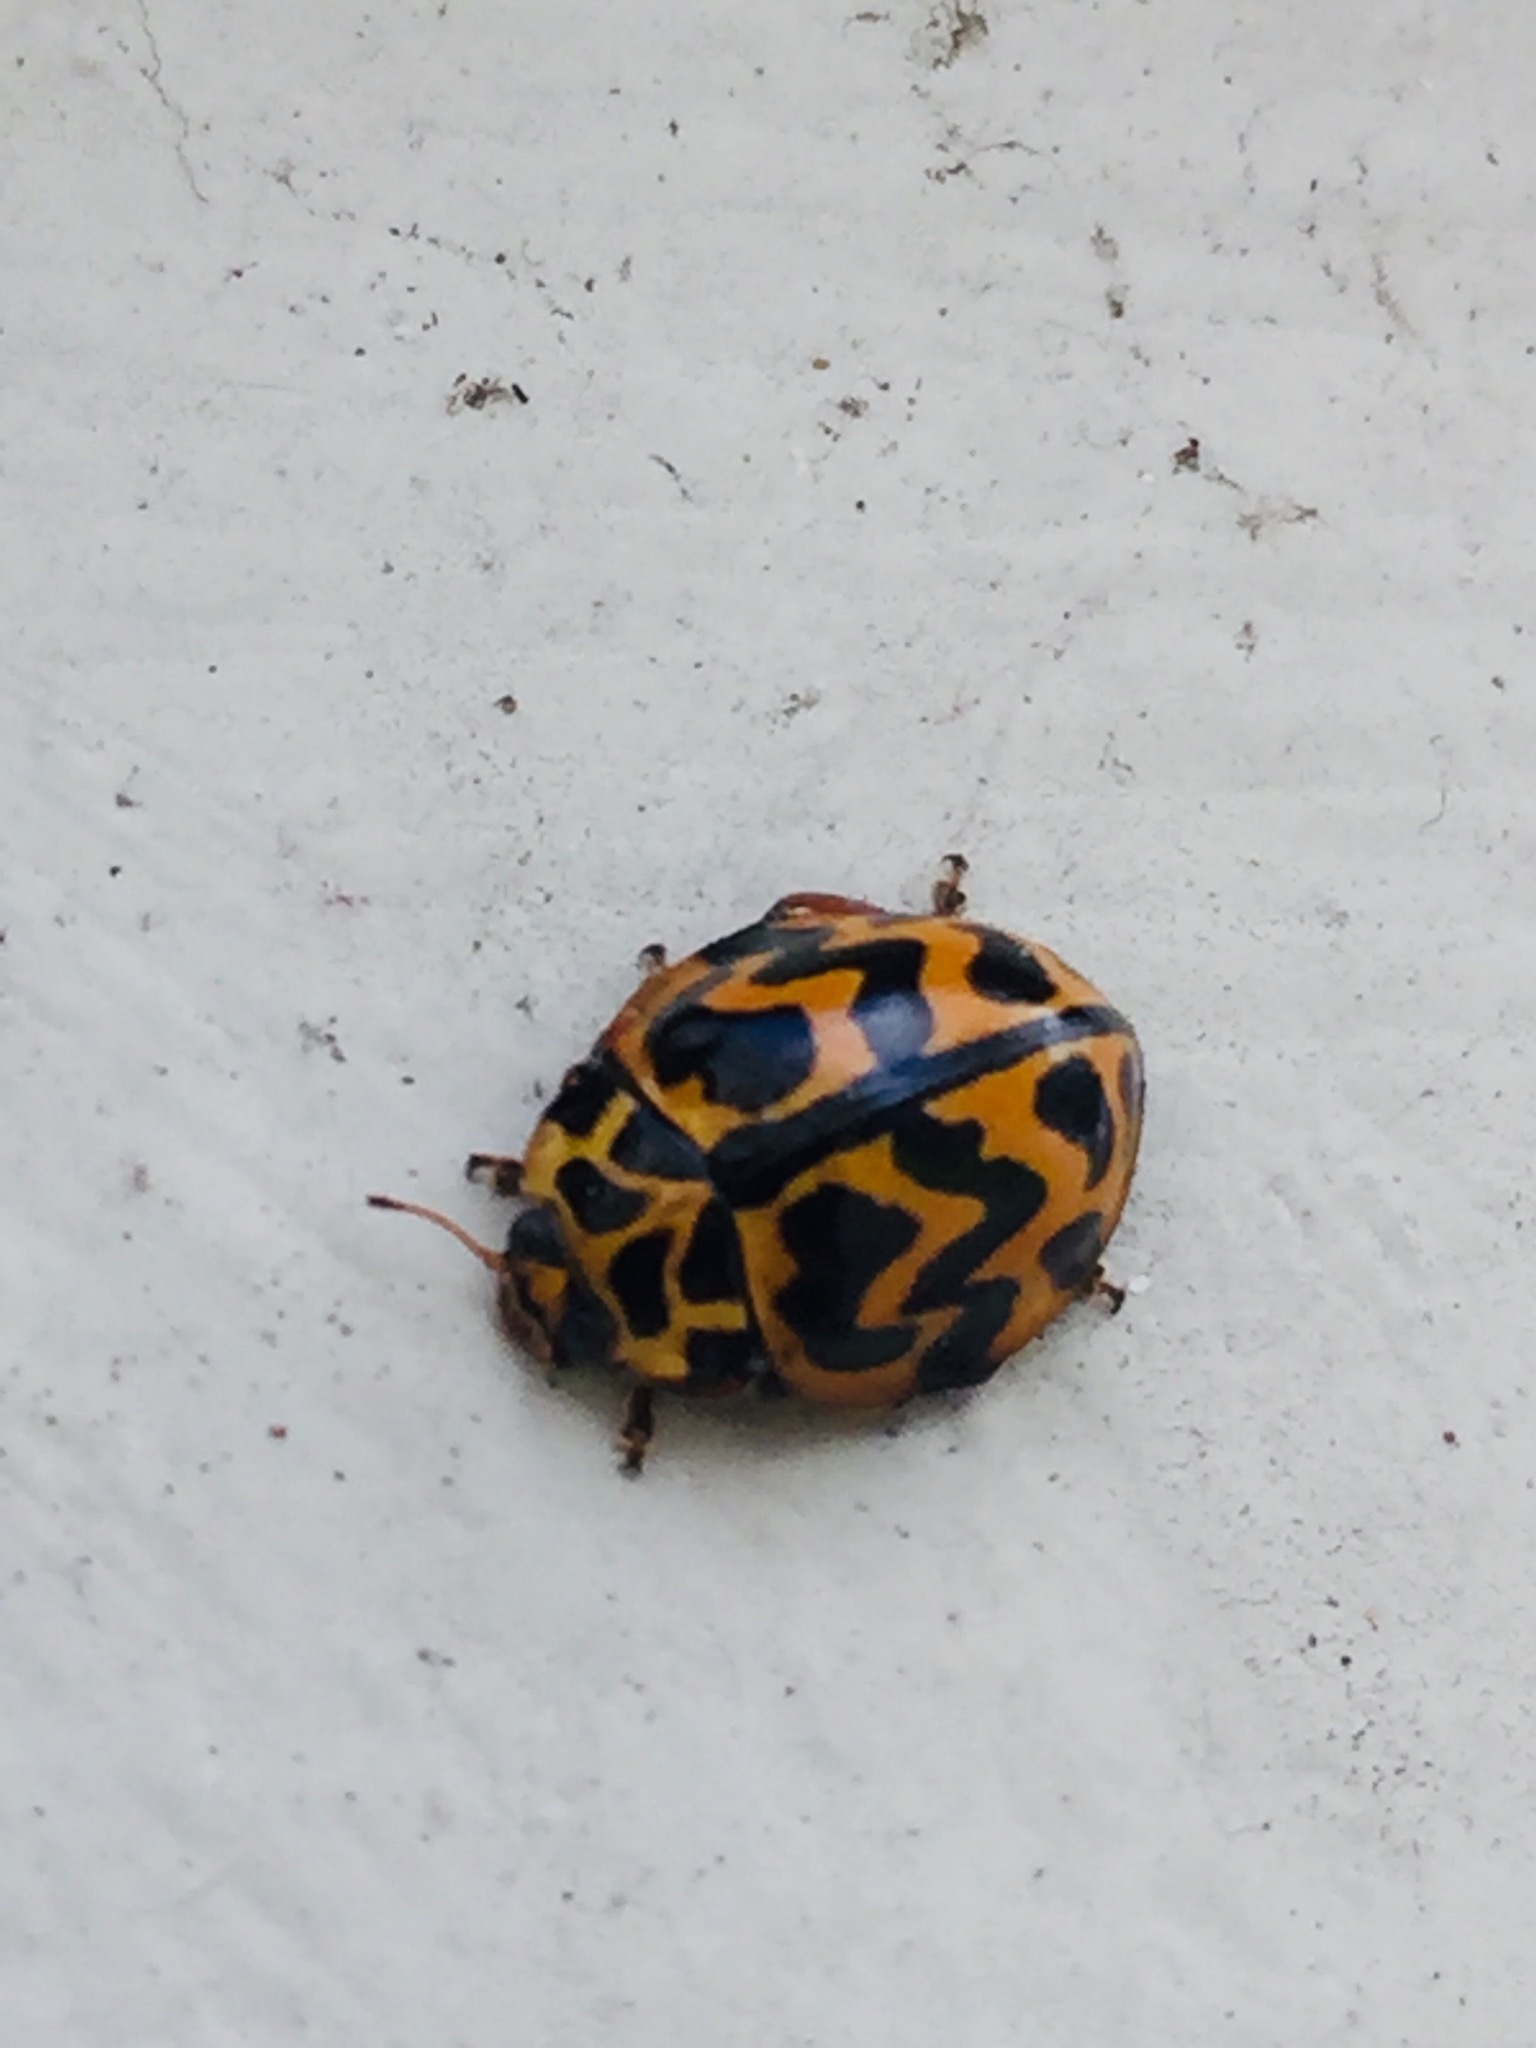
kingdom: Animalia
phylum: Arthropoda
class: Insecta
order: Coleoptera
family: Coccinellidae
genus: Cleobora
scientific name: Cleobora
